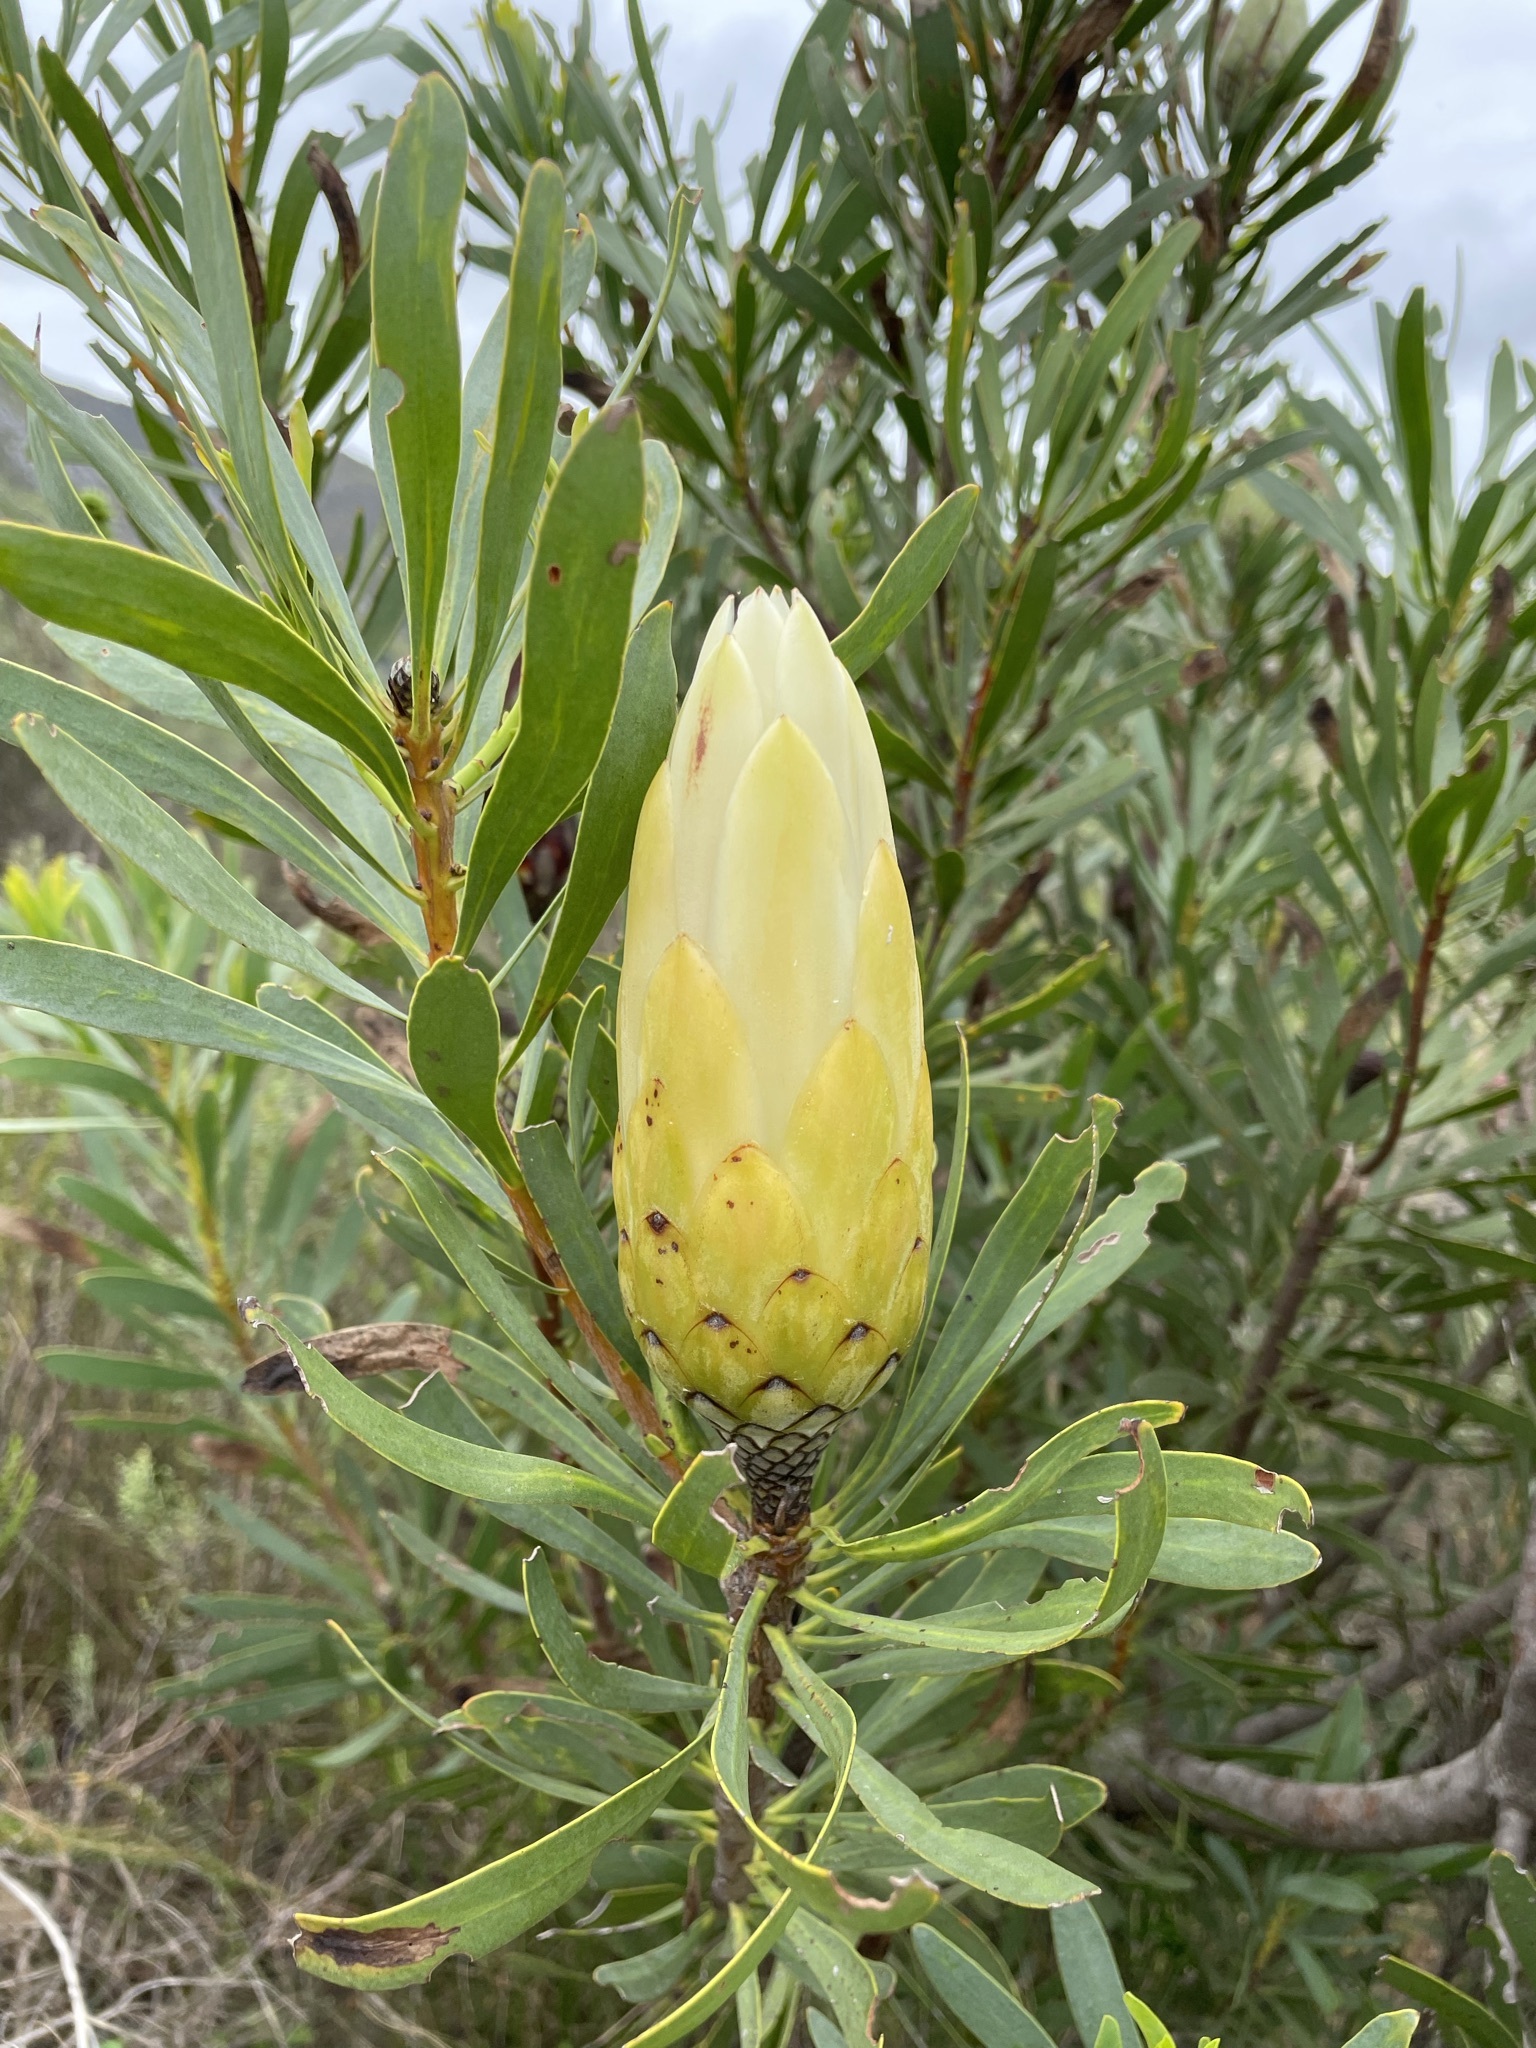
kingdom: Plantae
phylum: Tracheophyta
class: Magnoliopsida
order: Proteales
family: Proteaceae
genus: Protea
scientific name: Protea repens
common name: Sugarbush
